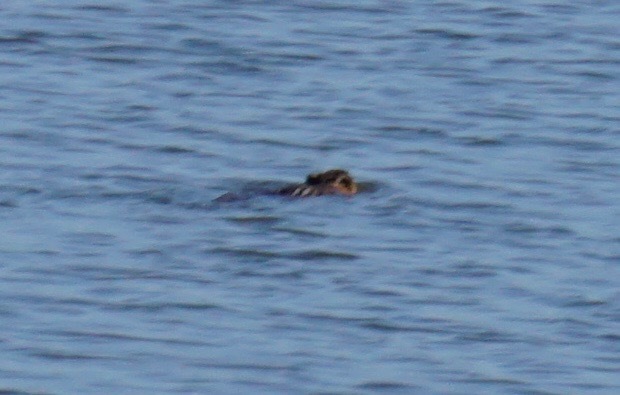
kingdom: Animalia
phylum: Chordata
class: Mammalia
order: Rodentia
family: Cricetidae
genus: Ondatra
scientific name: Ondatra zibethicus
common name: Muskrat
